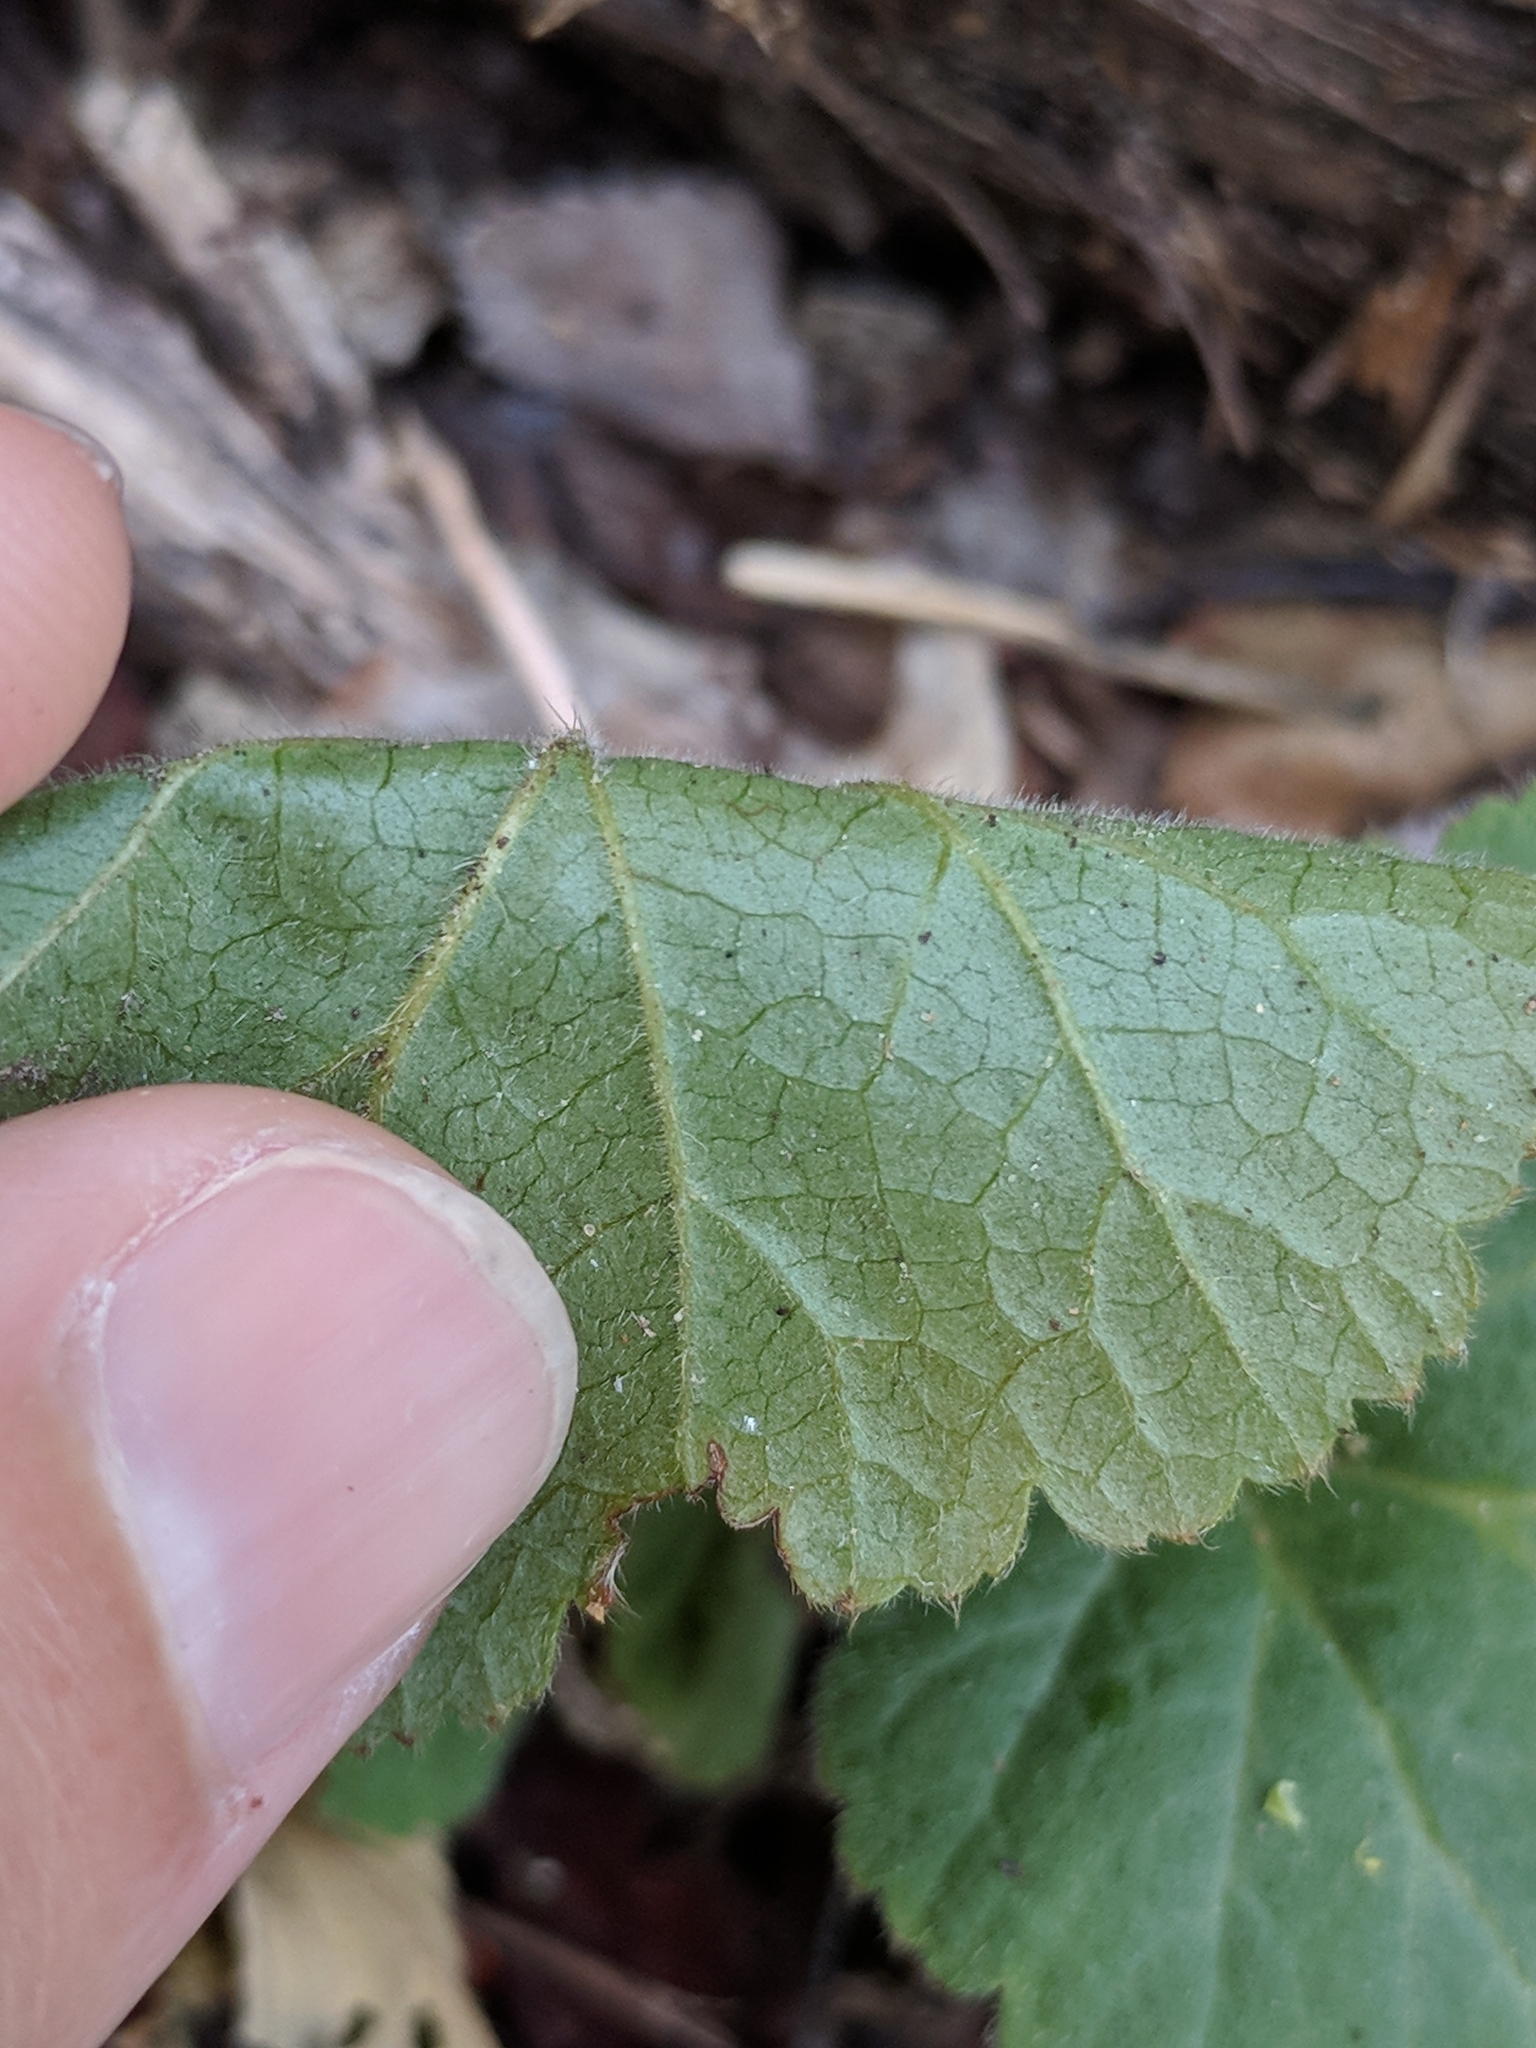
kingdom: Plantae
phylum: Tracheophyta
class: Magnoliopsida
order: Rosales
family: Rosaceae
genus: Geum
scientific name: Geum canadense
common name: White avens
